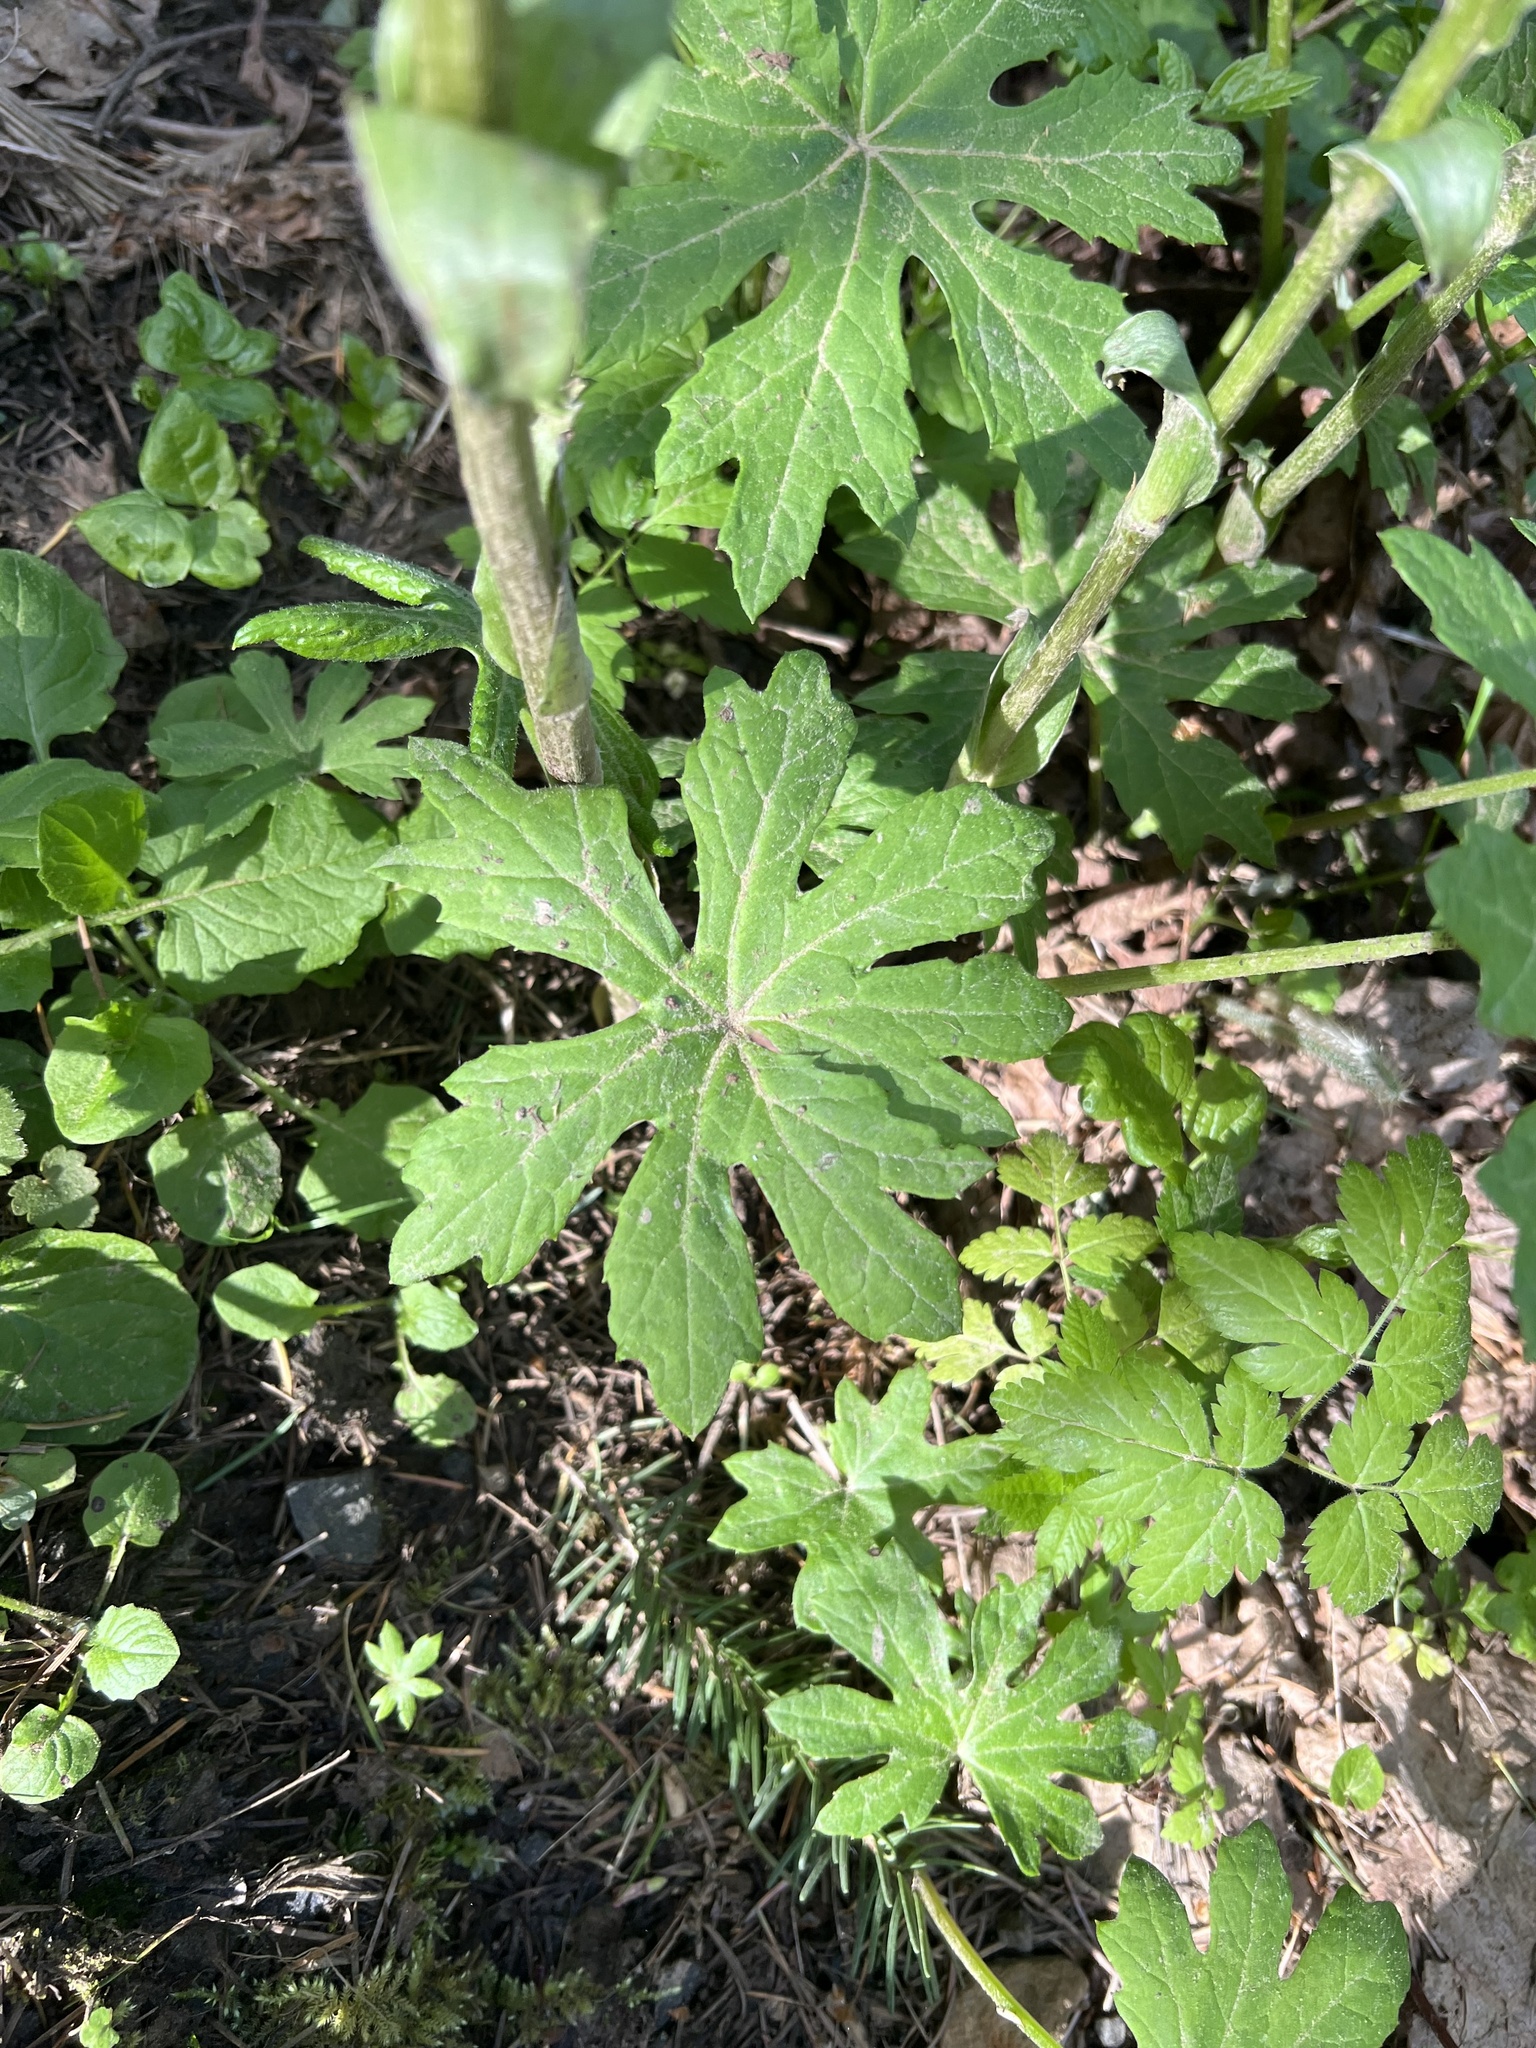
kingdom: Plantae
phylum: Tracheophyta
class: Magnoliopsida
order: Asterales
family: Asteraceae
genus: Petasites
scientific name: Petasites frigidus
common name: Arctic butterbur
